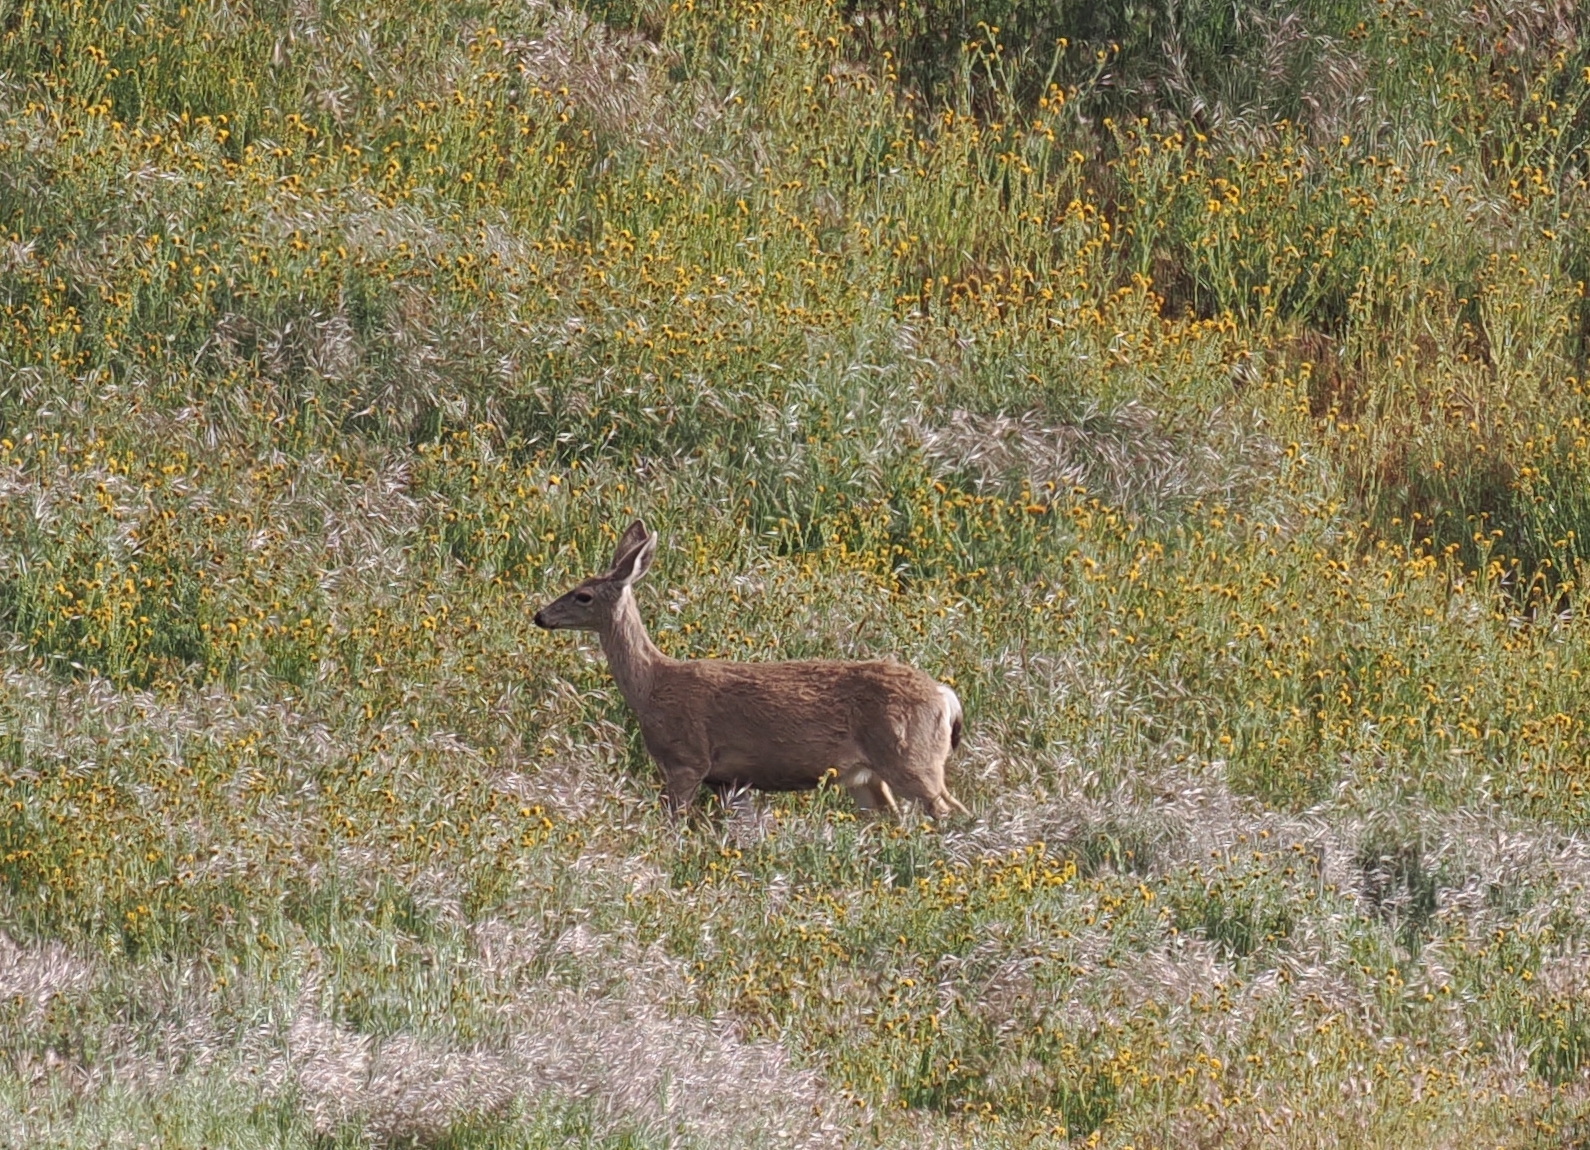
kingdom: Animalia
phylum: Chordata
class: Mammalia
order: Artiodactyla
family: Cervidae
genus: Odocoileus
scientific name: Odocoileus hemionus
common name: Mule deer
